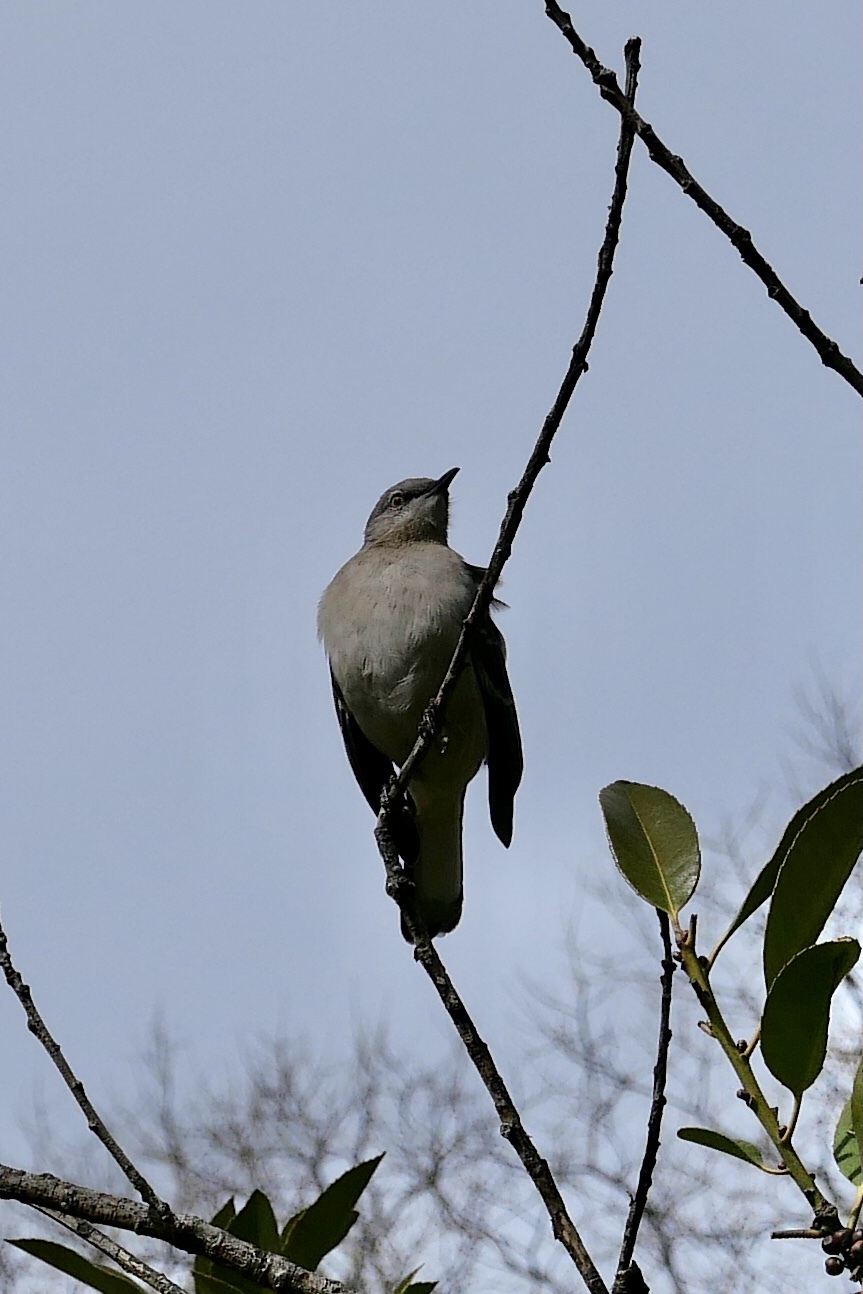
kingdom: Animalia
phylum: Chordata
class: Aves
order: Passeriformes
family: Mimidae
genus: Mimus
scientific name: Mimus polyglottos
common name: Northern mockingbird
